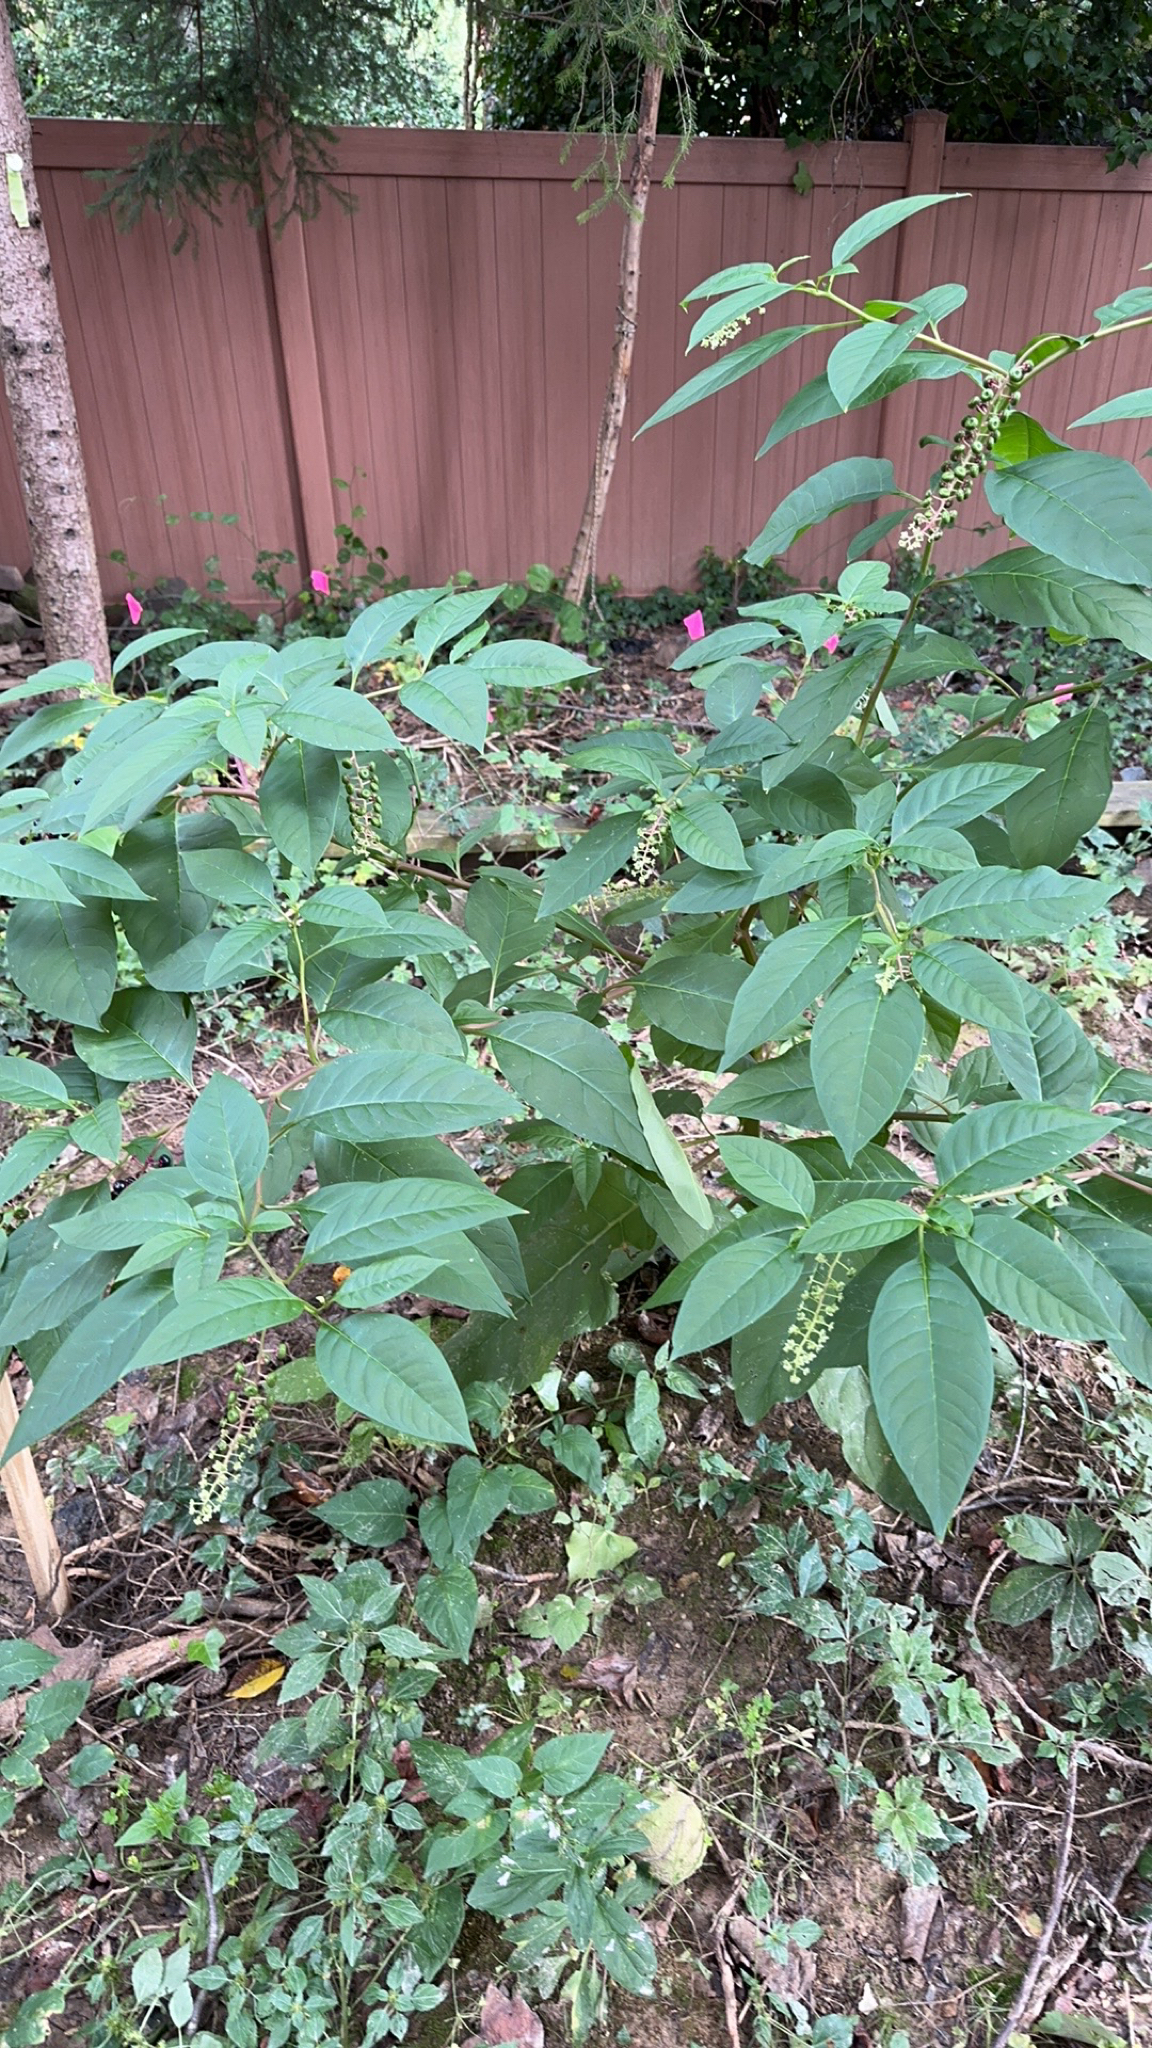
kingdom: Plantae
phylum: Tracheophyta
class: Magnoliopsida
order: Caryophyllales
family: Phytolaccaceae
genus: Phytolacca
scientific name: Phytolacca americana
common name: American pokeweed
